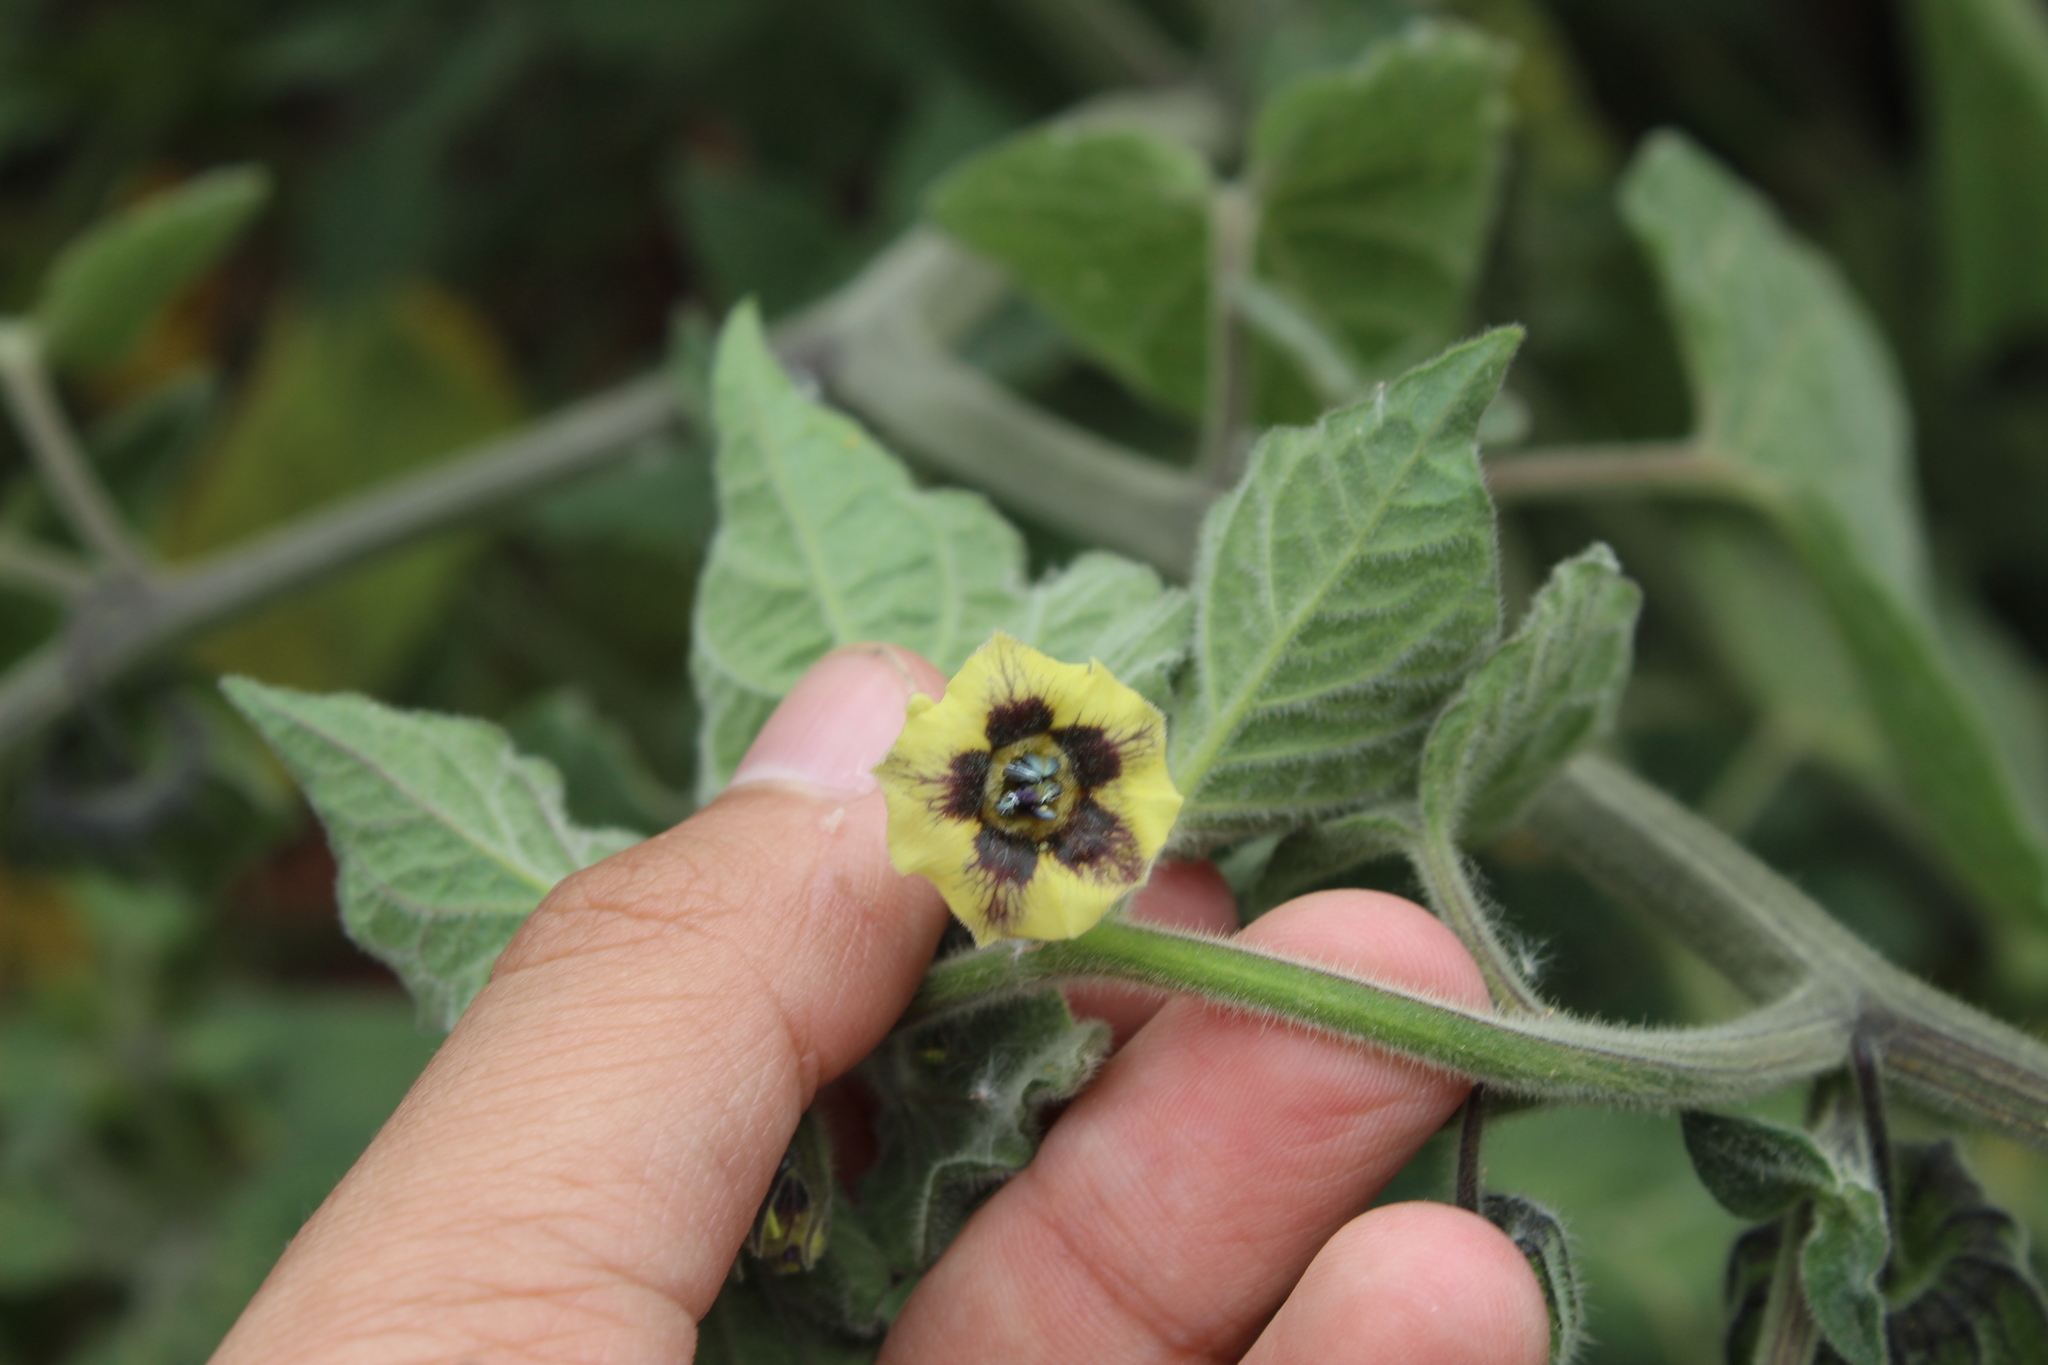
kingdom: Plantae
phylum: Tracheophyta
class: Magnoliopsida
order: Solanales
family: Solanaceae
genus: Physalis
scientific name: Physalis peruviana
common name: Cape-gooseberry
